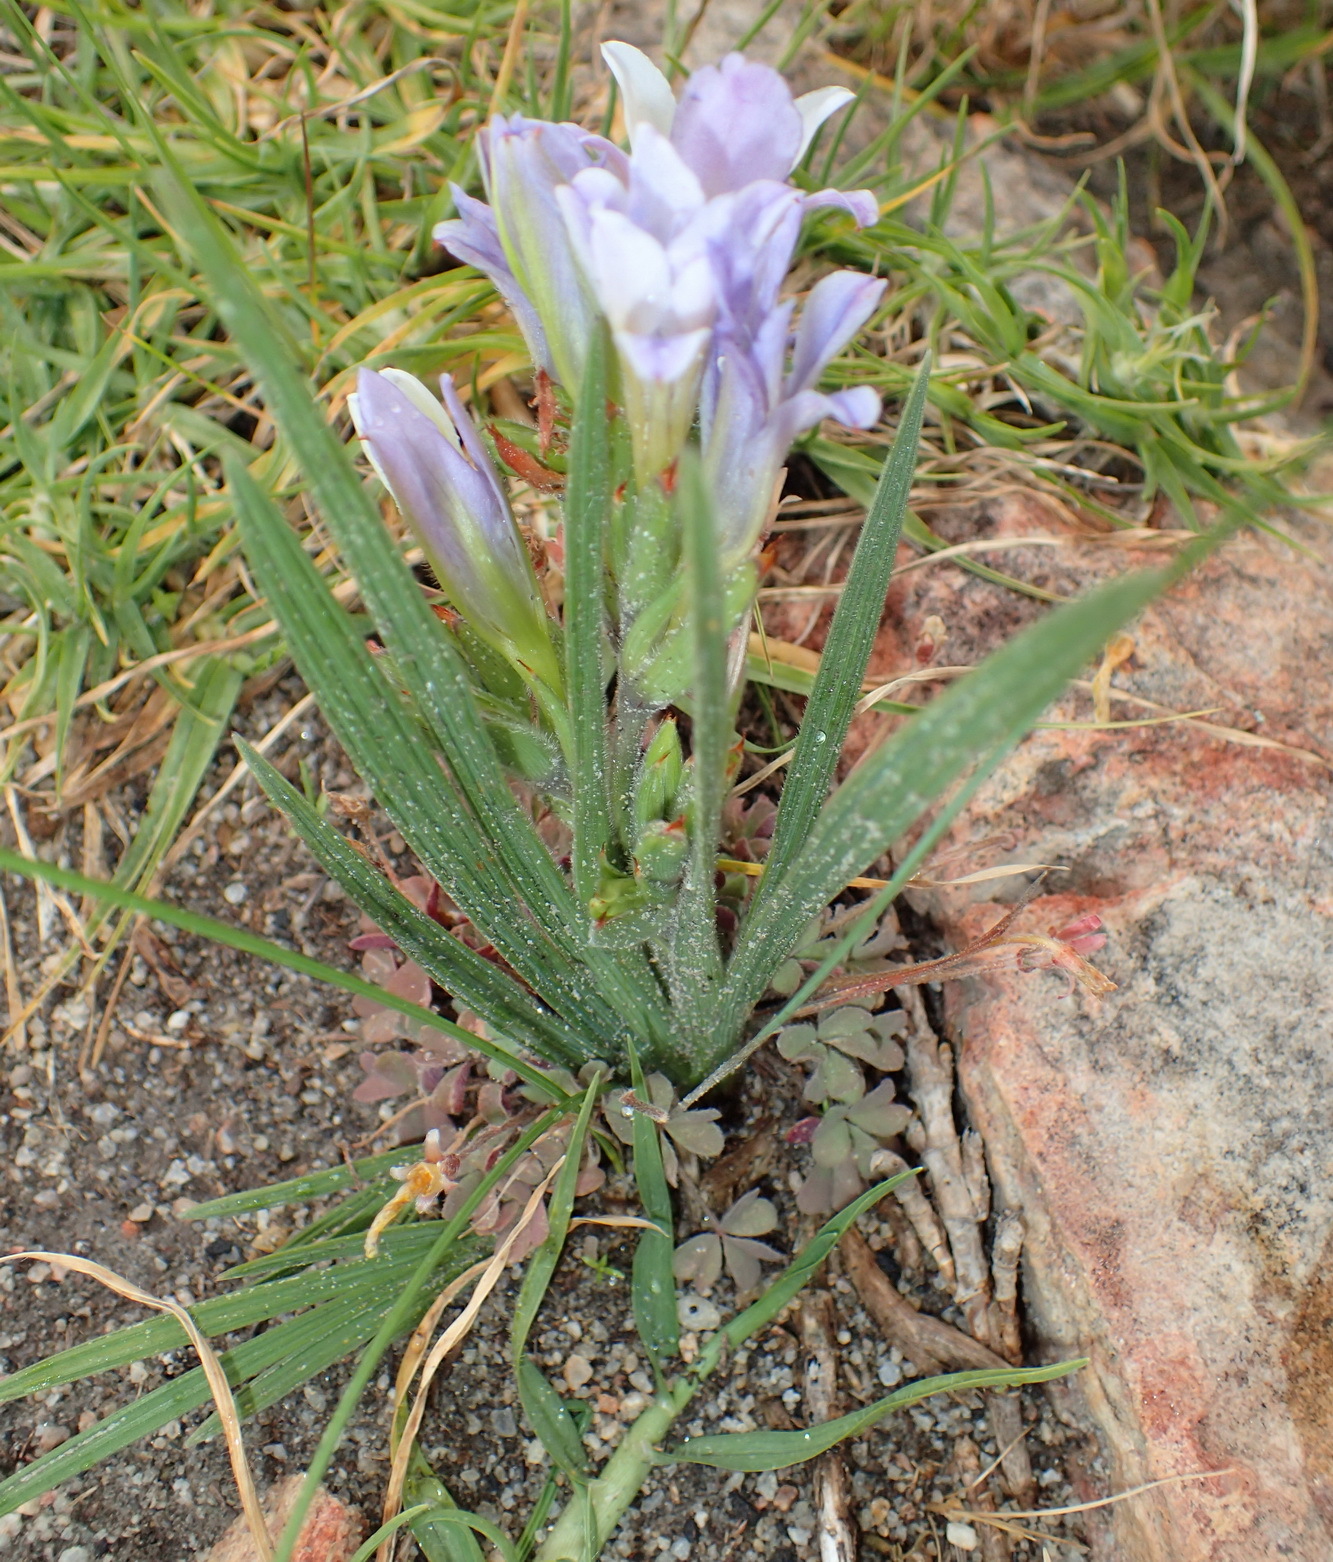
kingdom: Plantae
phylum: Tracheophyta
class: Liliopsida
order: Asparagales
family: Iridaceae
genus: Babiana
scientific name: Babiana mucronata
